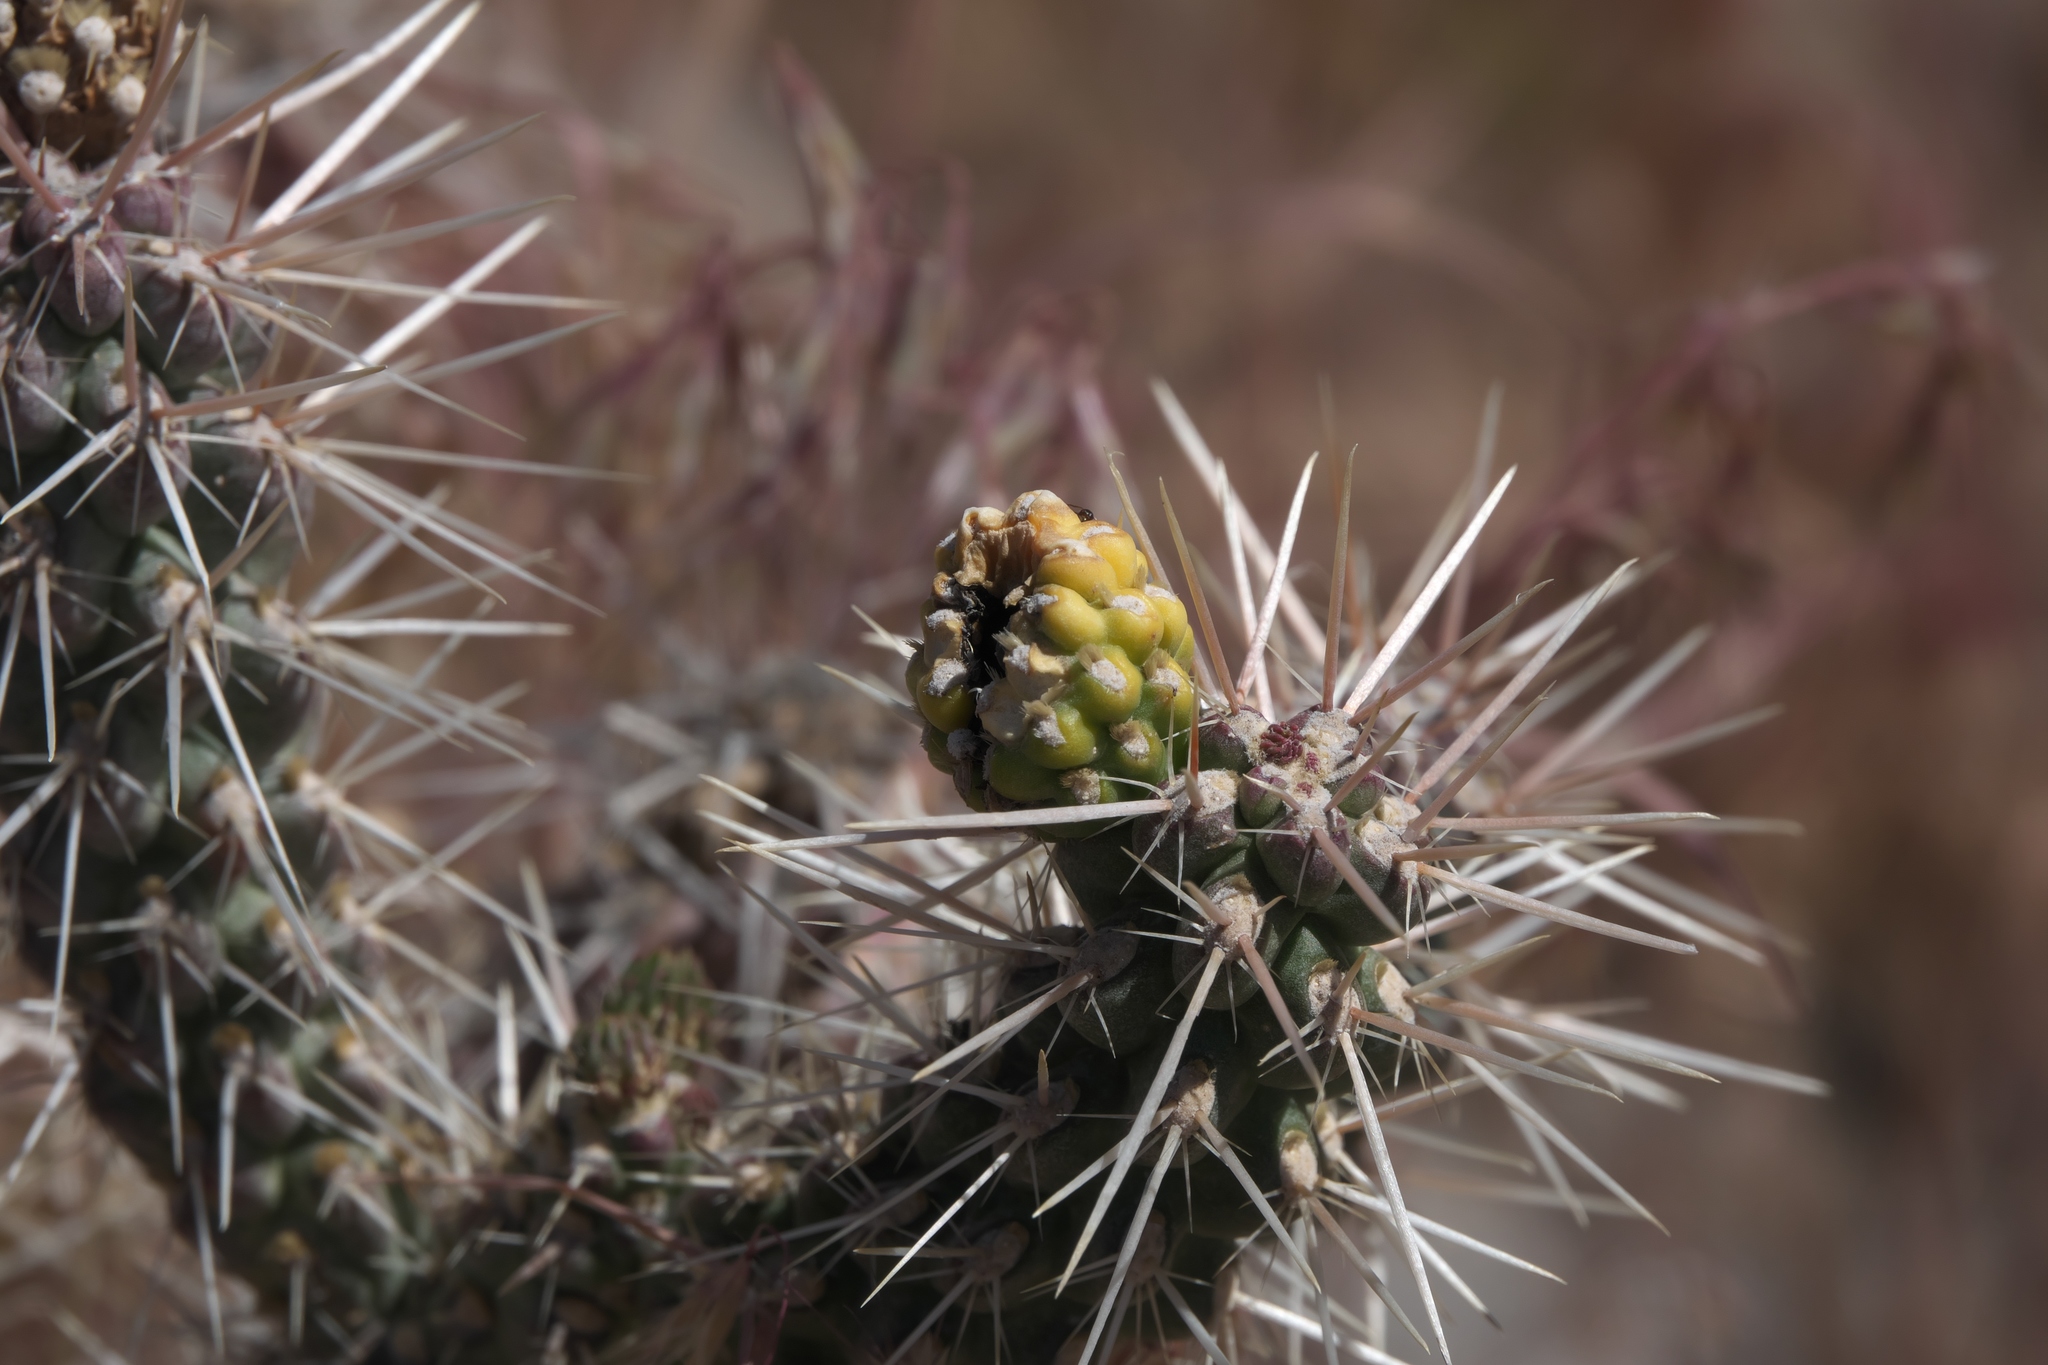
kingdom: Plantae
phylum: Tracheophyta
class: Magnoliopsida
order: Caryophyllales
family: Cactaceae
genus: Cylindropuntia
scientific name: Cylindropuntia whipplei
